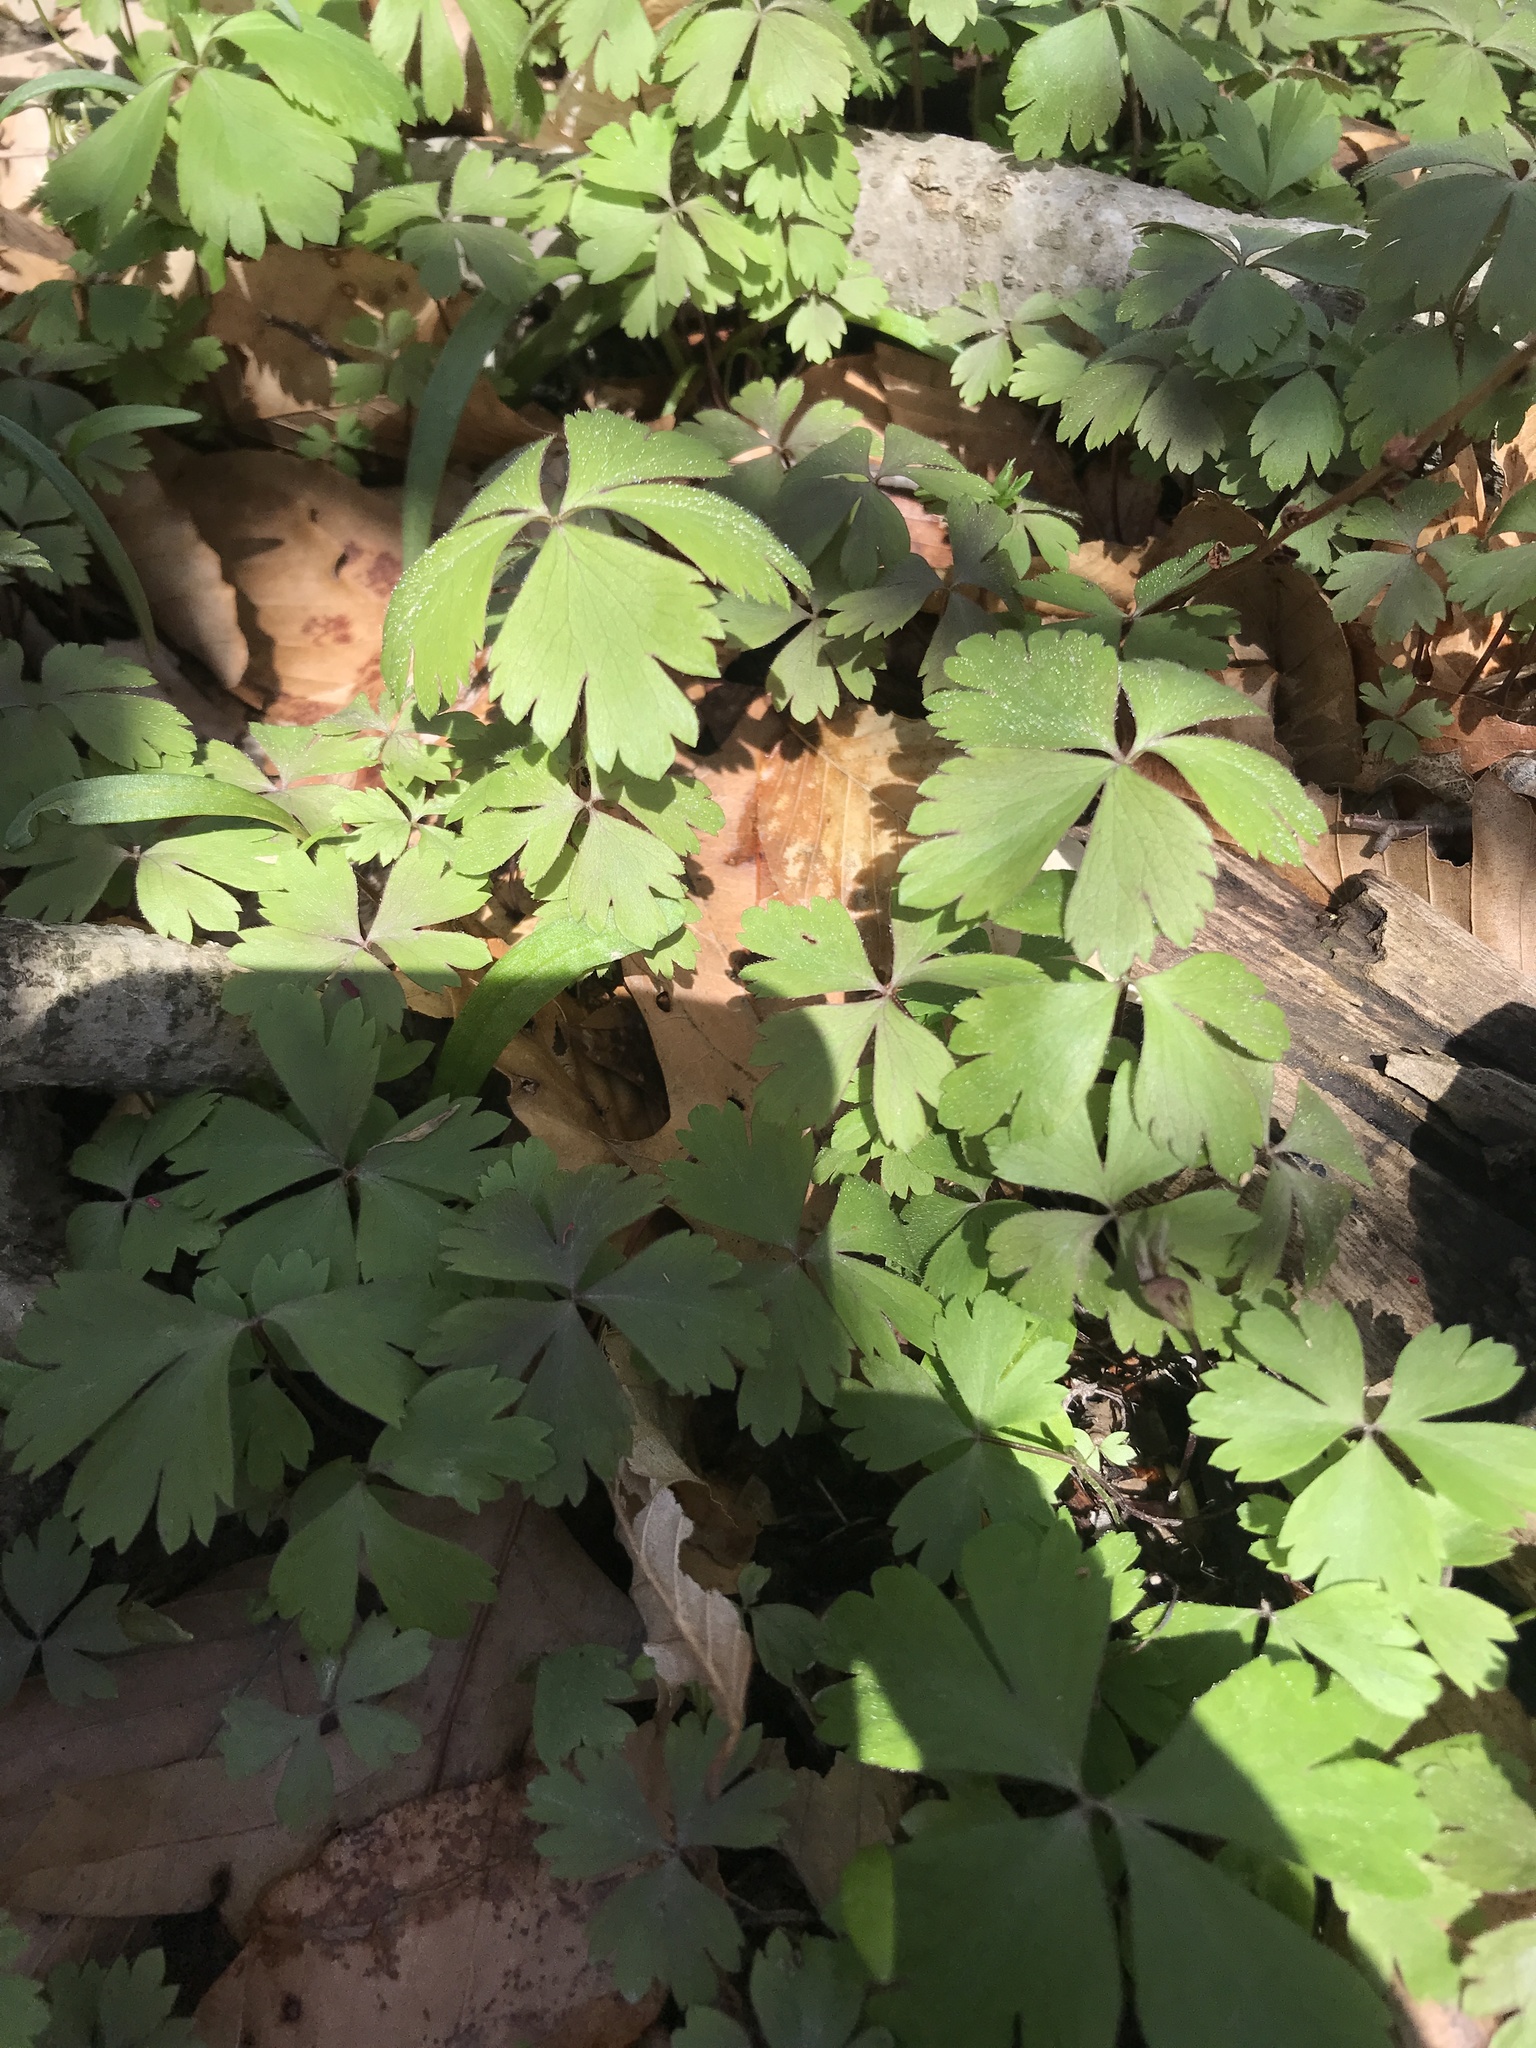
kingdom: Plantae
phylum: Tracheophyta
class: Magnoliopsida
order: Ranunculales
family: Ranunculaceae
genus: Anemone
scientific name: Anemone quinquefolia
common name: Wood anemone
